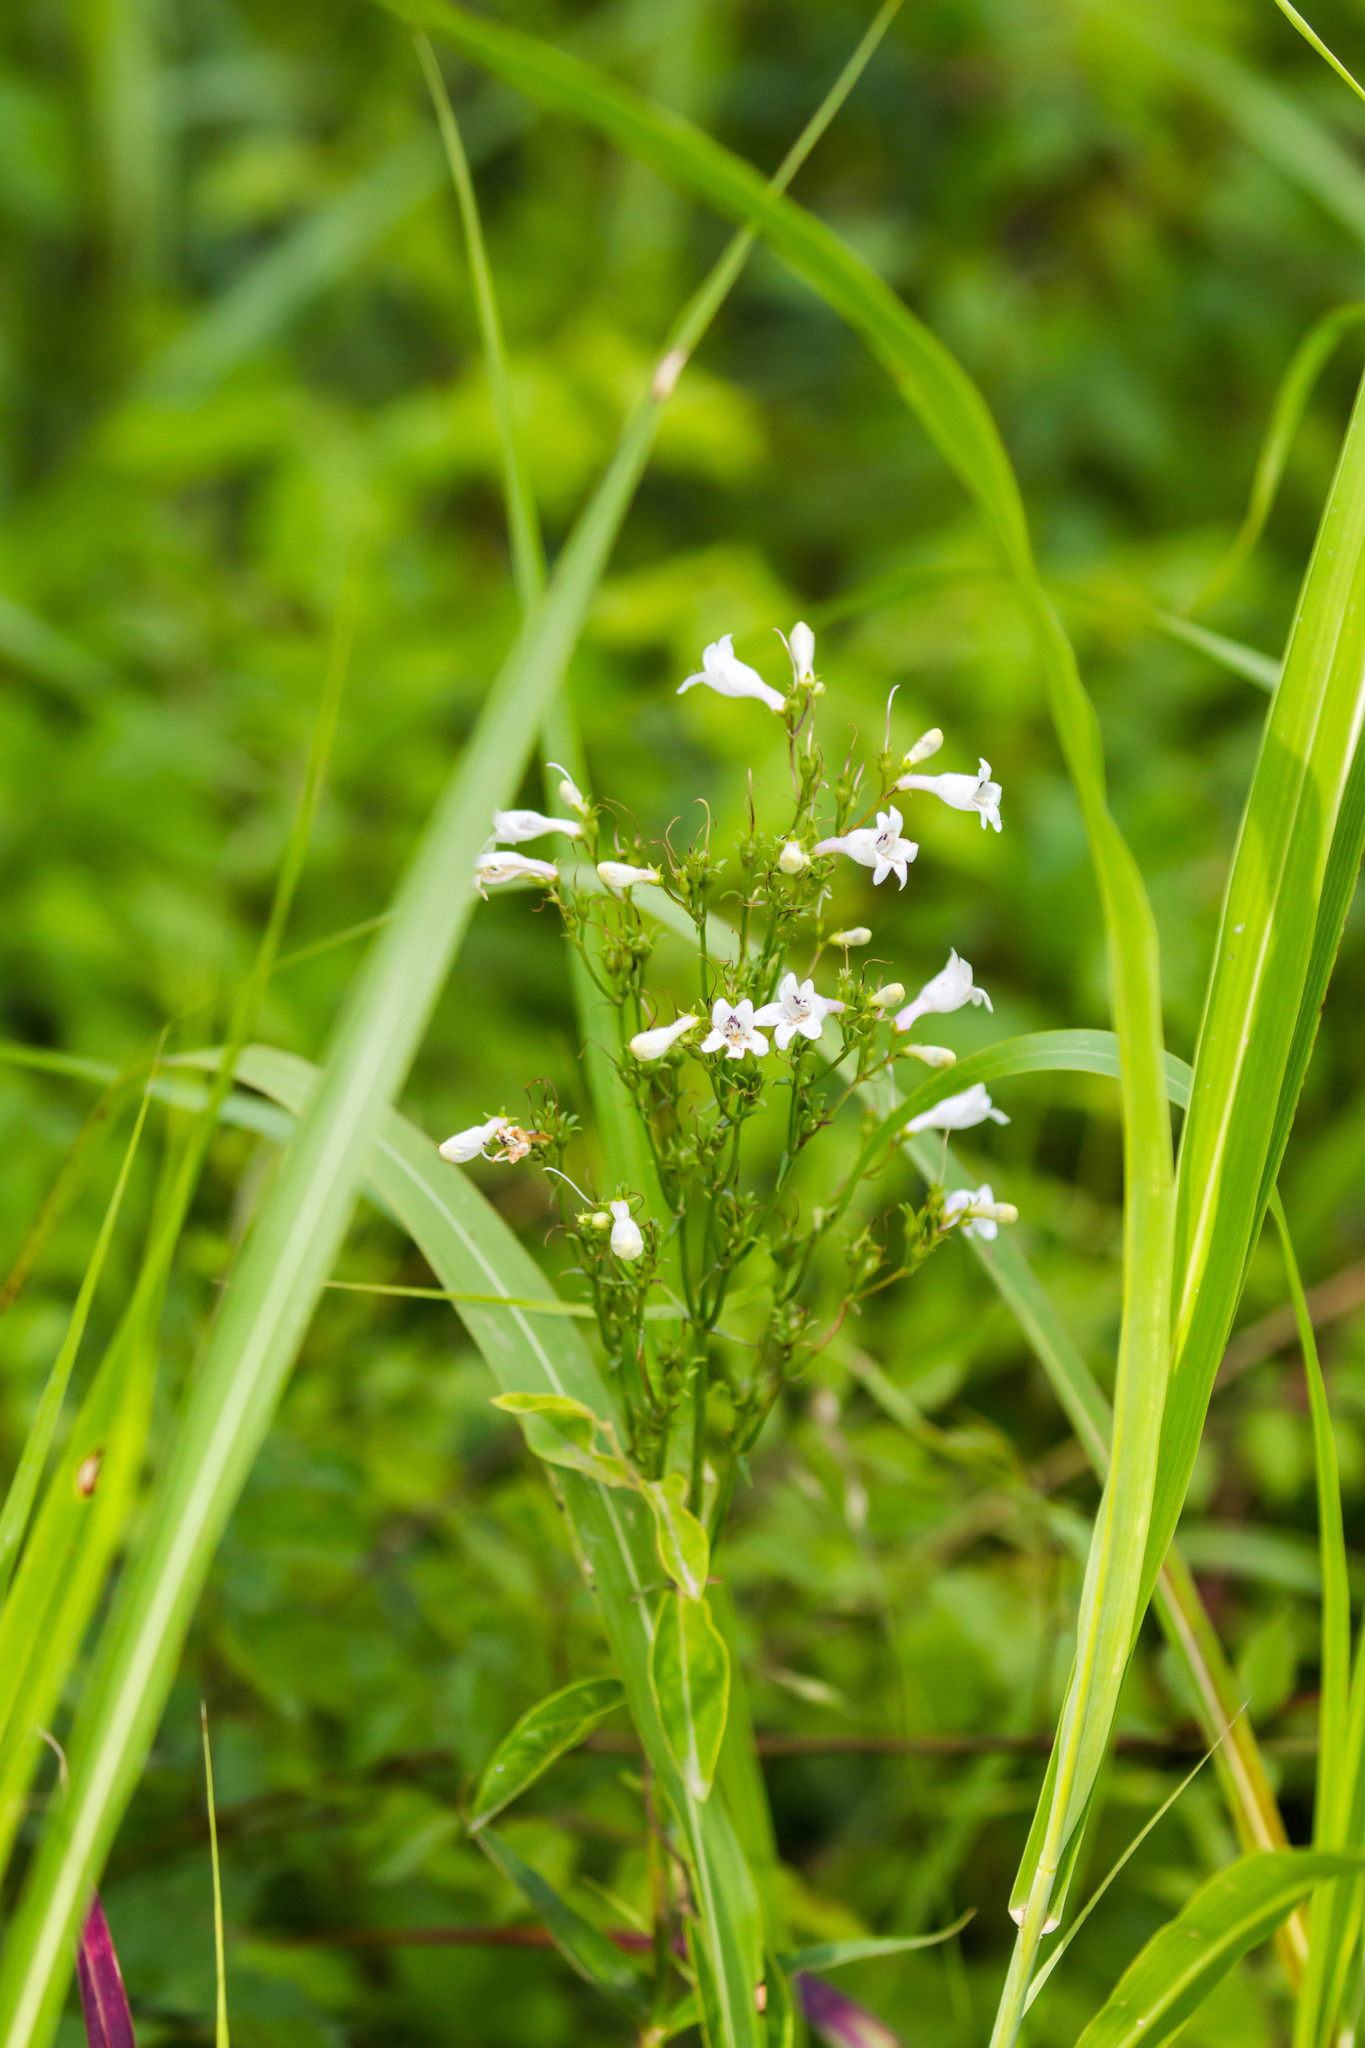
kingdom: Plantae
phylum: Tracheophyta
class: Magnoliopsida
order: Lamiales
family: Plantaginaceae
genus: Penstemon
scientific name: Penstemon digitalis
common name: Foxglove beardtongue
